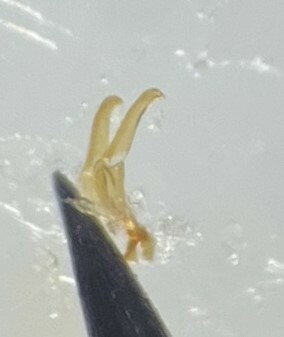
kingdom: Animalia
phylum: Arthropoda
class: Insecta
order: Coleoptera
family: Dytiscidae
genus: Liodessus
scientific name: Liodessus obscurellus
